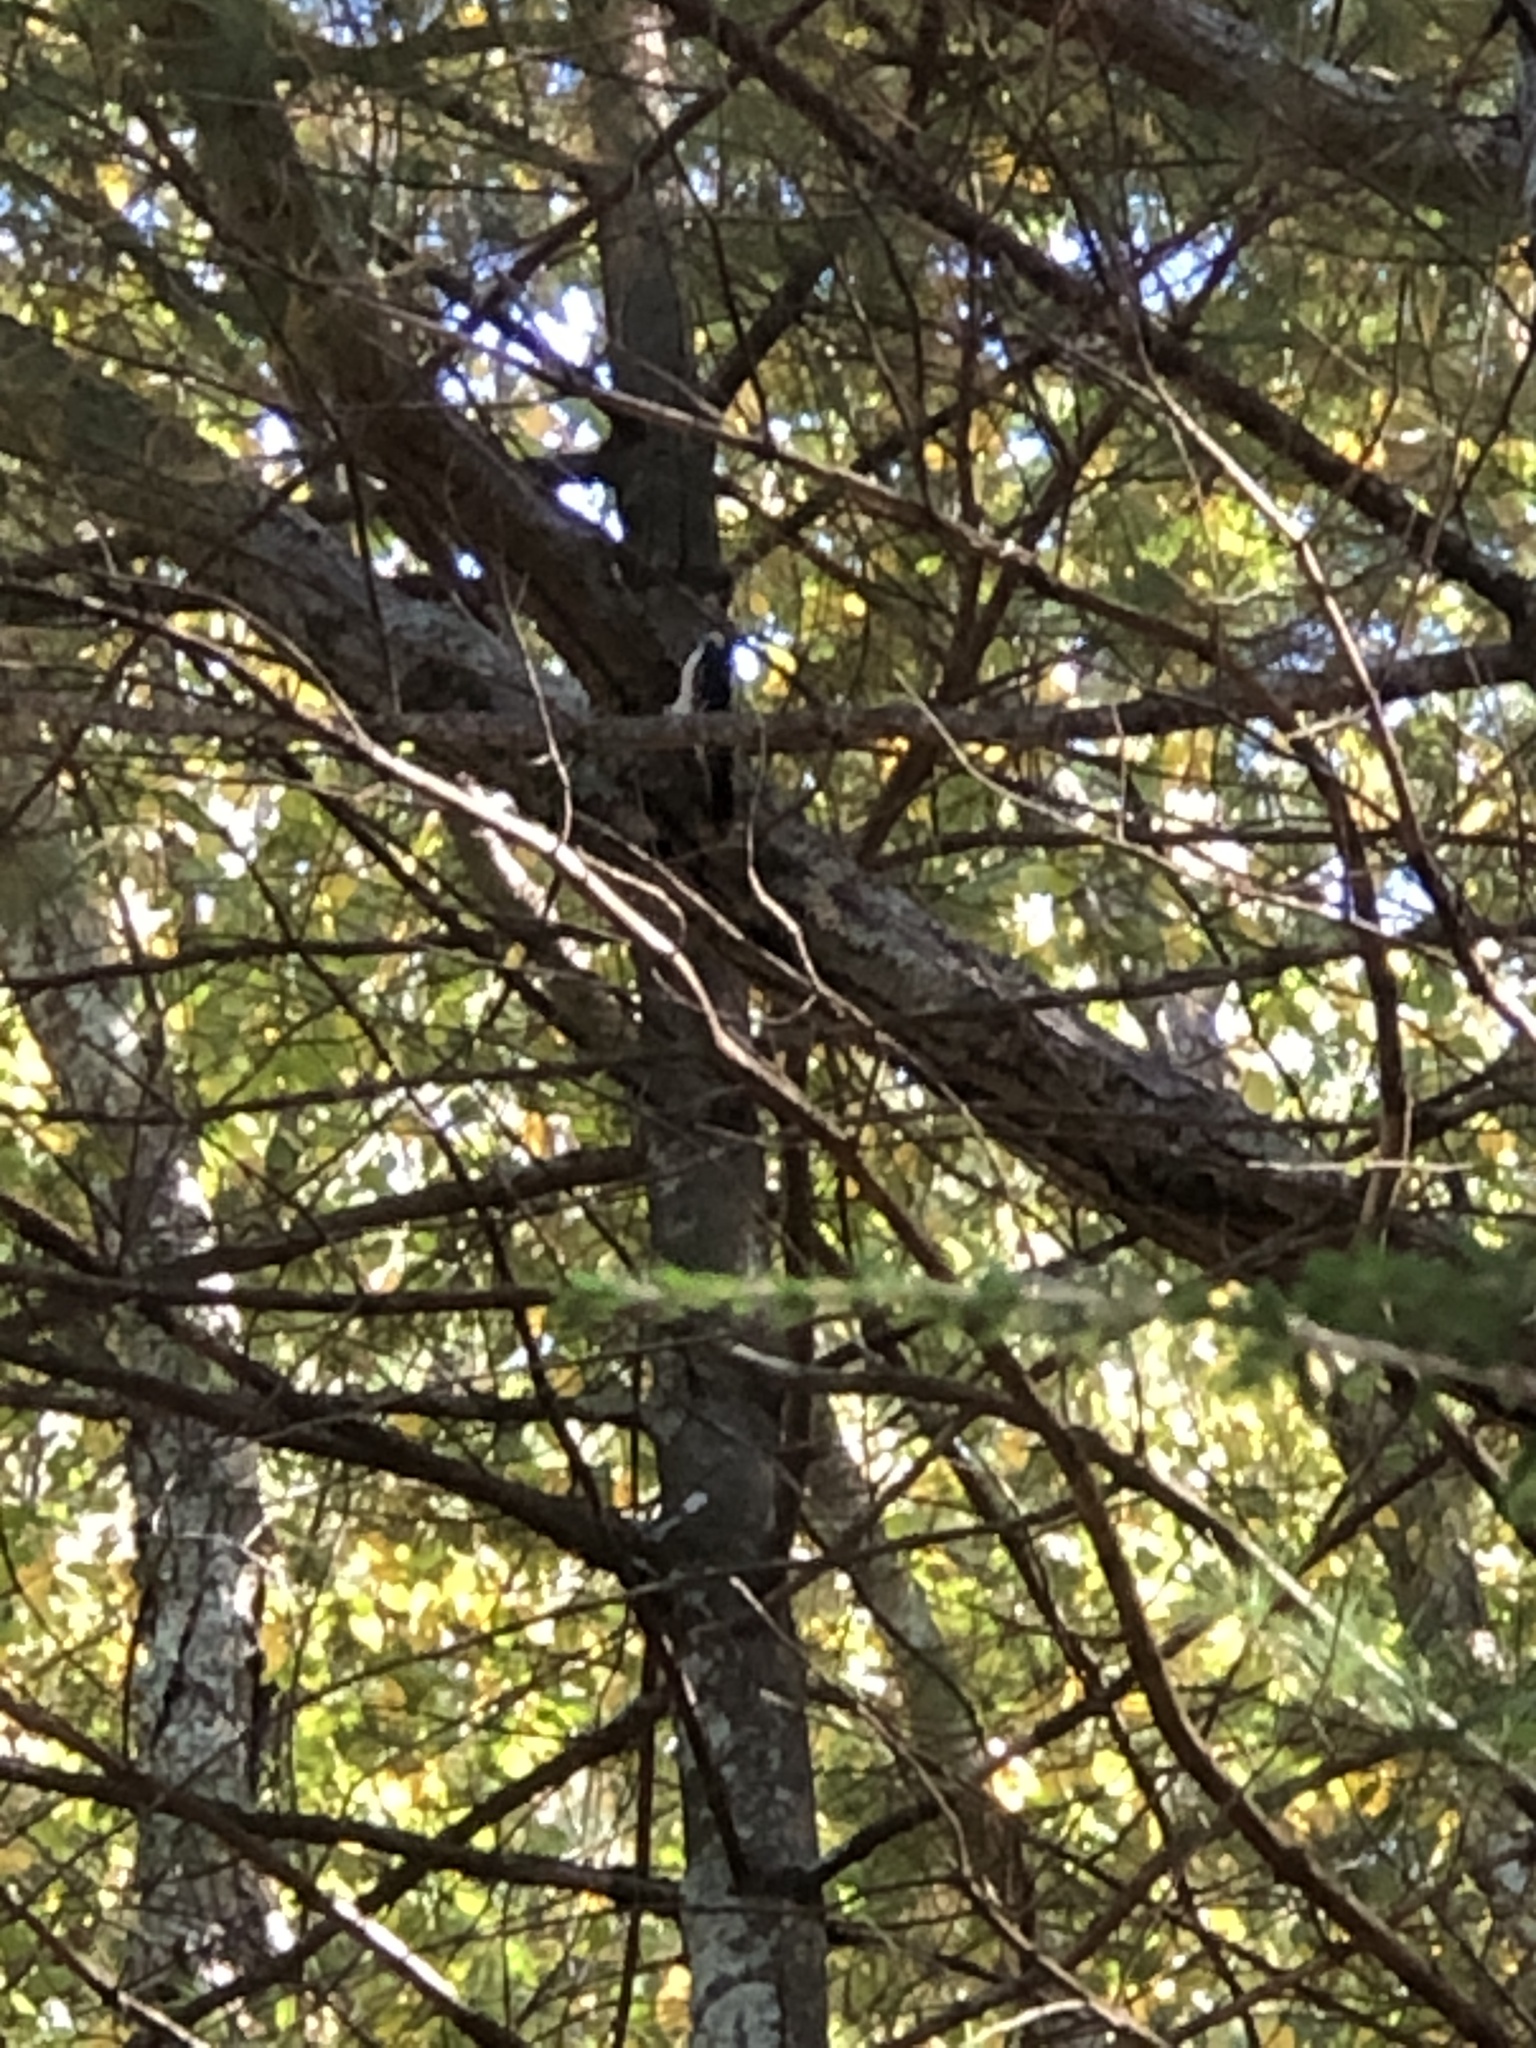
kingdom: Animalia
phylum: Chordata
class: Aves
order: Piciformes
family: Picidae
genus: Leuconotopicus
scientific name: Leuconotopicus villosus
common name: Hairy woodpecker
